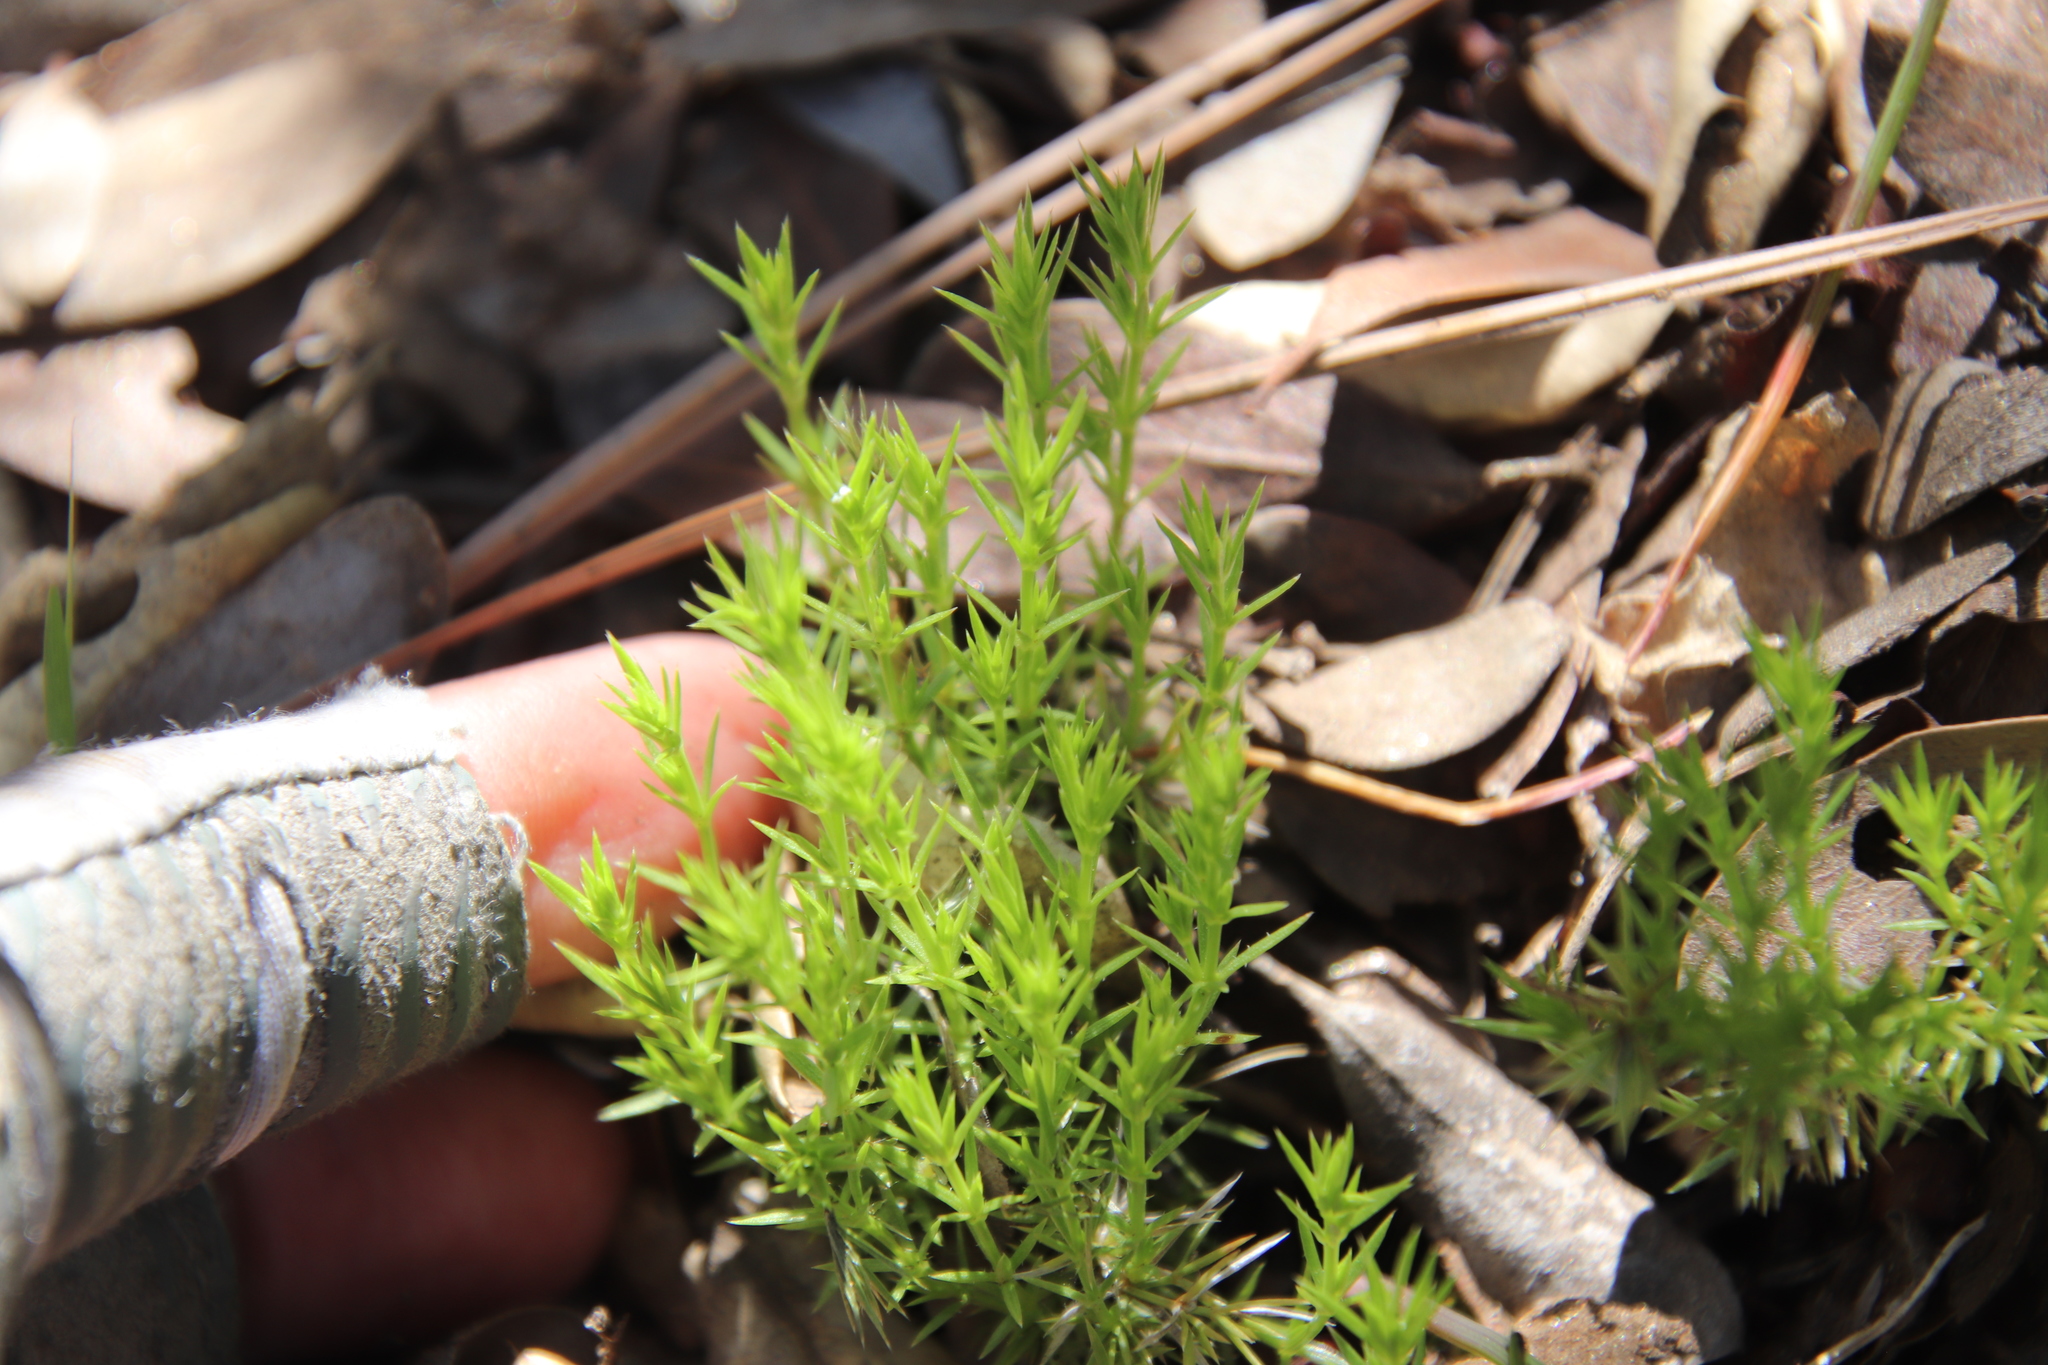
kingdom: Plantae
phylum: Tracheophyta
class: Magnoliopsida
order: Gentianales
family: Rubiaceae
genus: Galium
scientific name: Galium andrewsii
